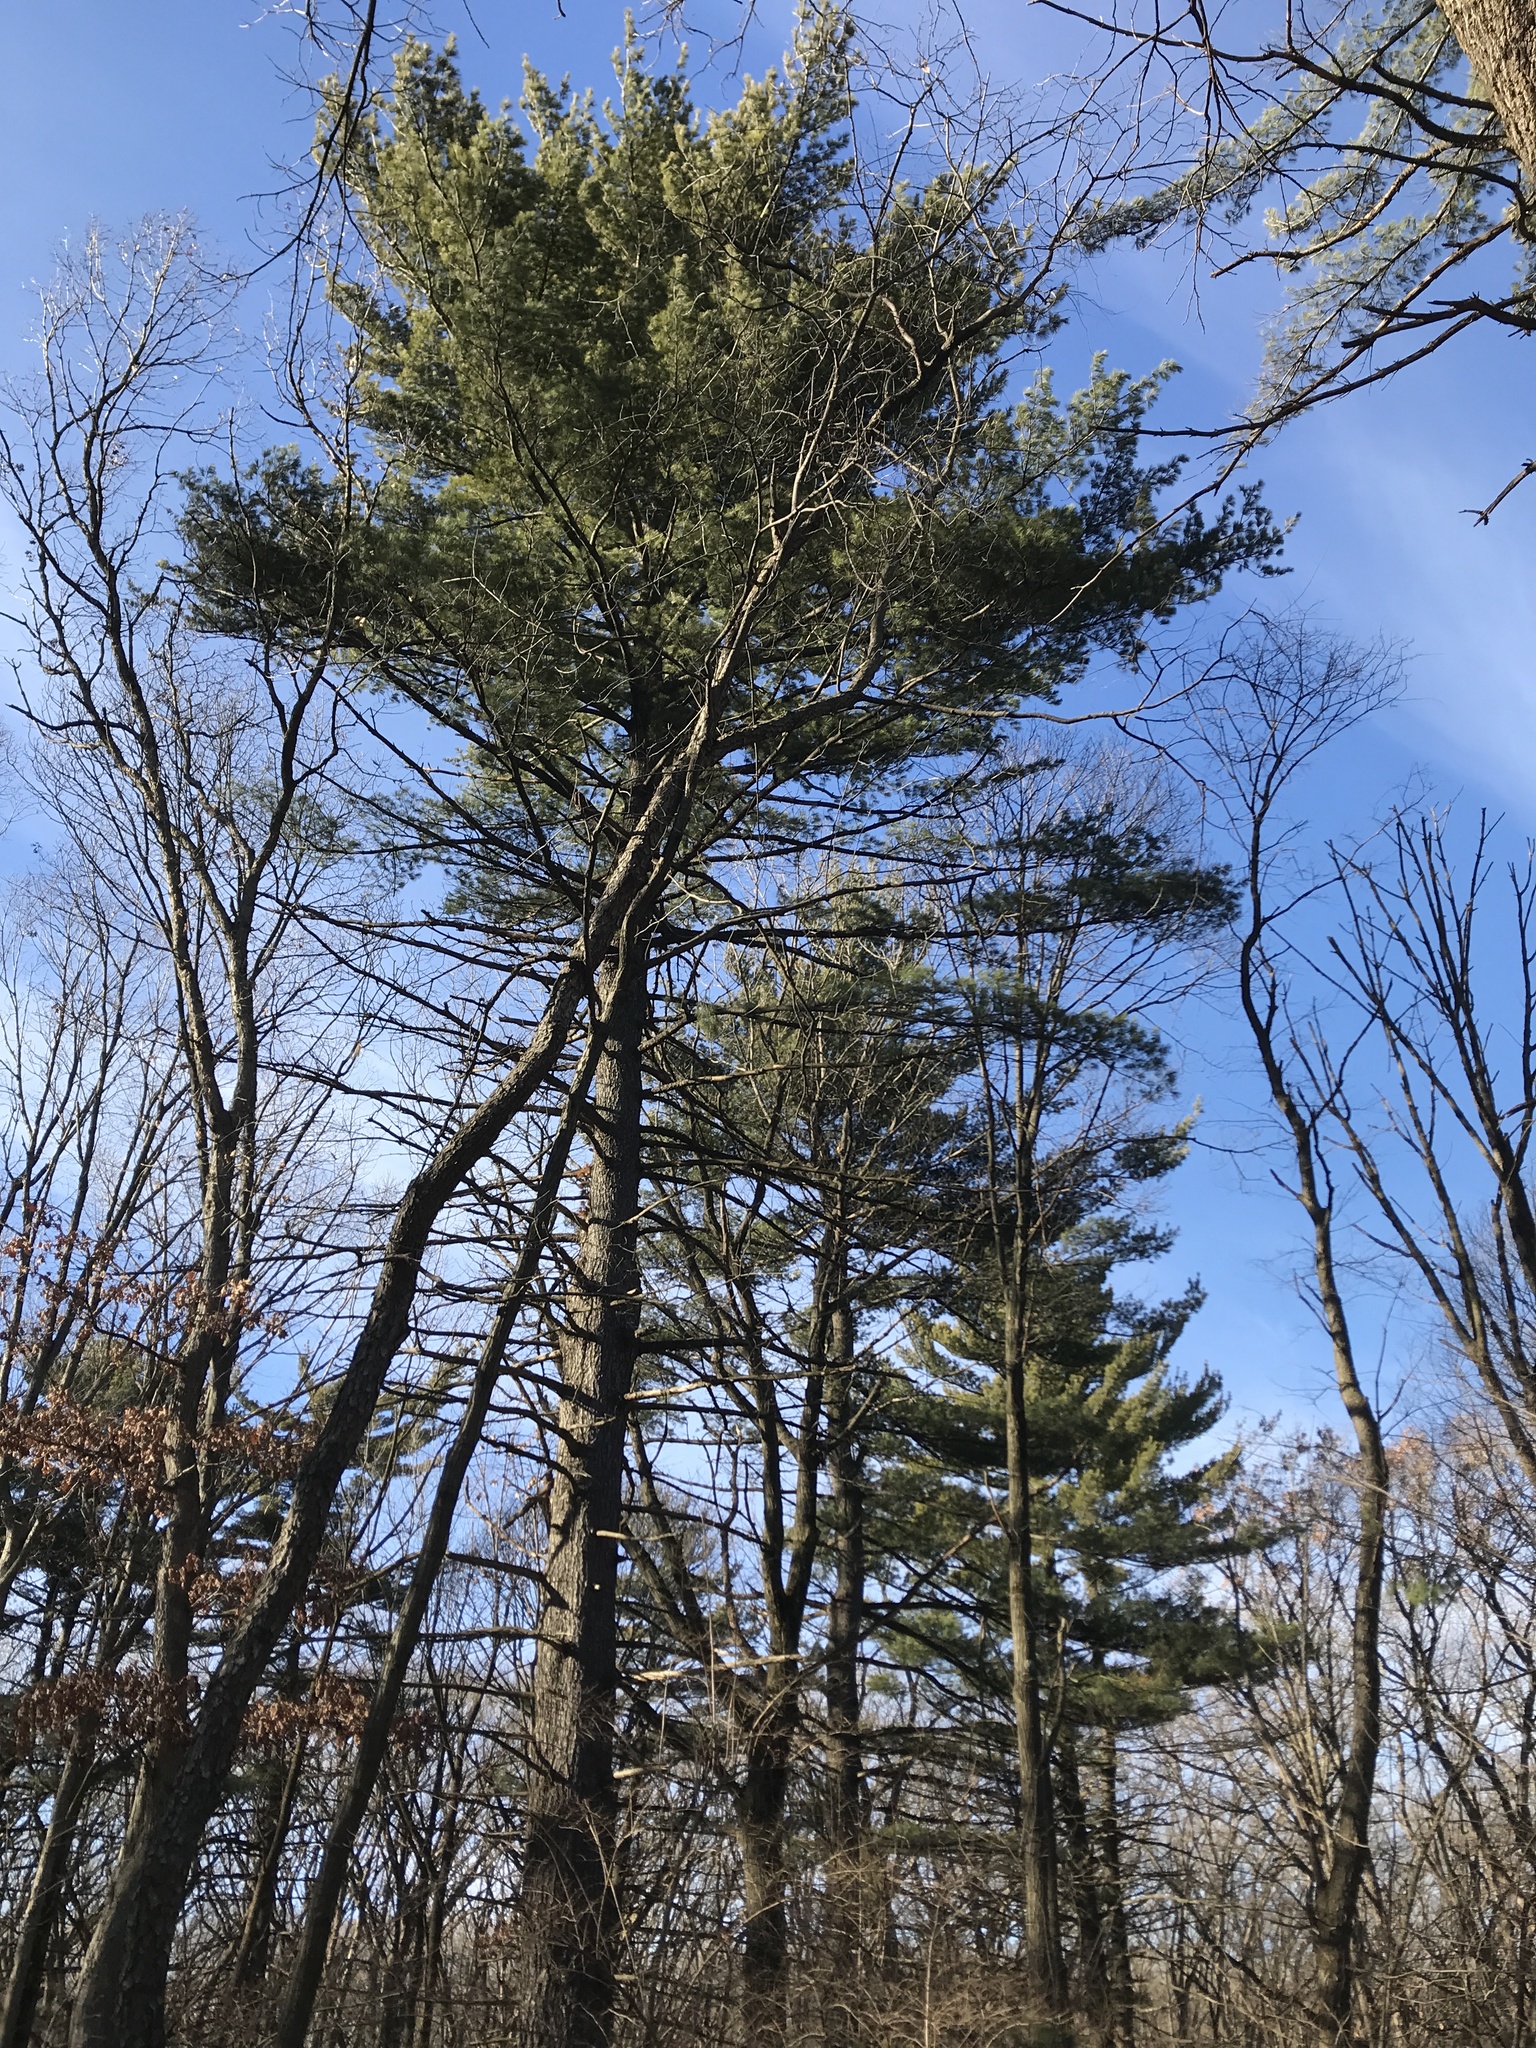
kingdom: Plantae
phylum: Tracheophyta
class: Pinopsida
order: Pinales
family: Pinaceae
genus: Pinus
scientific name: Pinus strobus
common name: Weymouth pine
